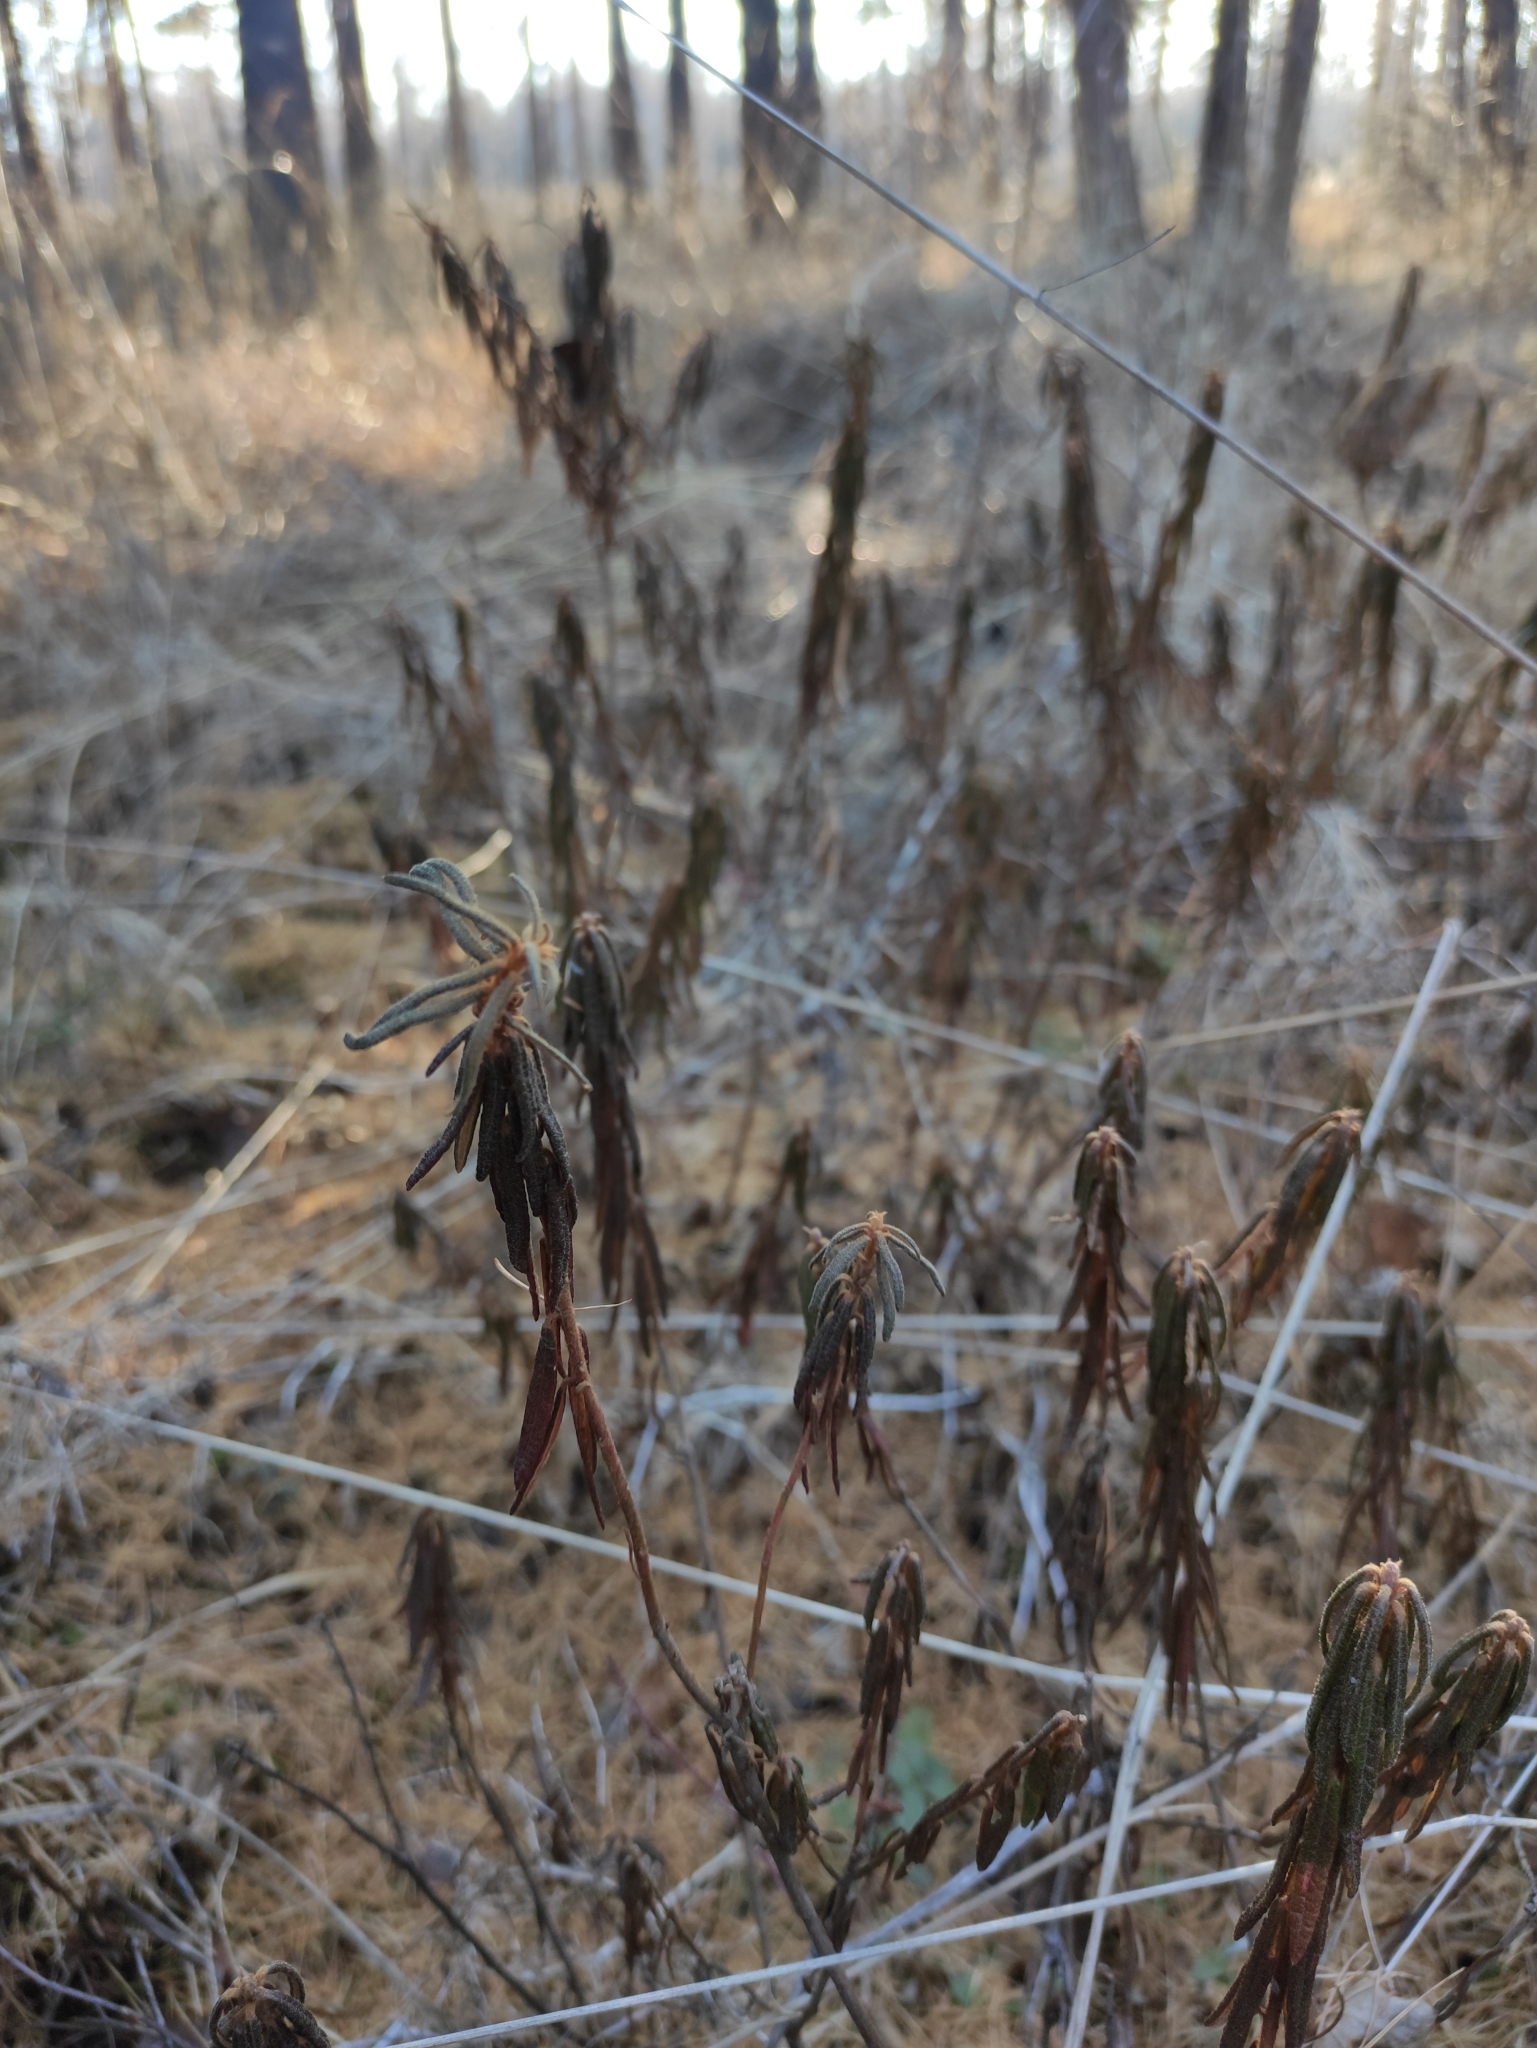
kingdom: Plantae
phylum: Tracheophyta
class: Magnoliopsida
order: Ericales
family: Ericaceae
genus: Rhododendron
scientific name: Rhododendron tomentosum
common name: Marsh labrador tea
